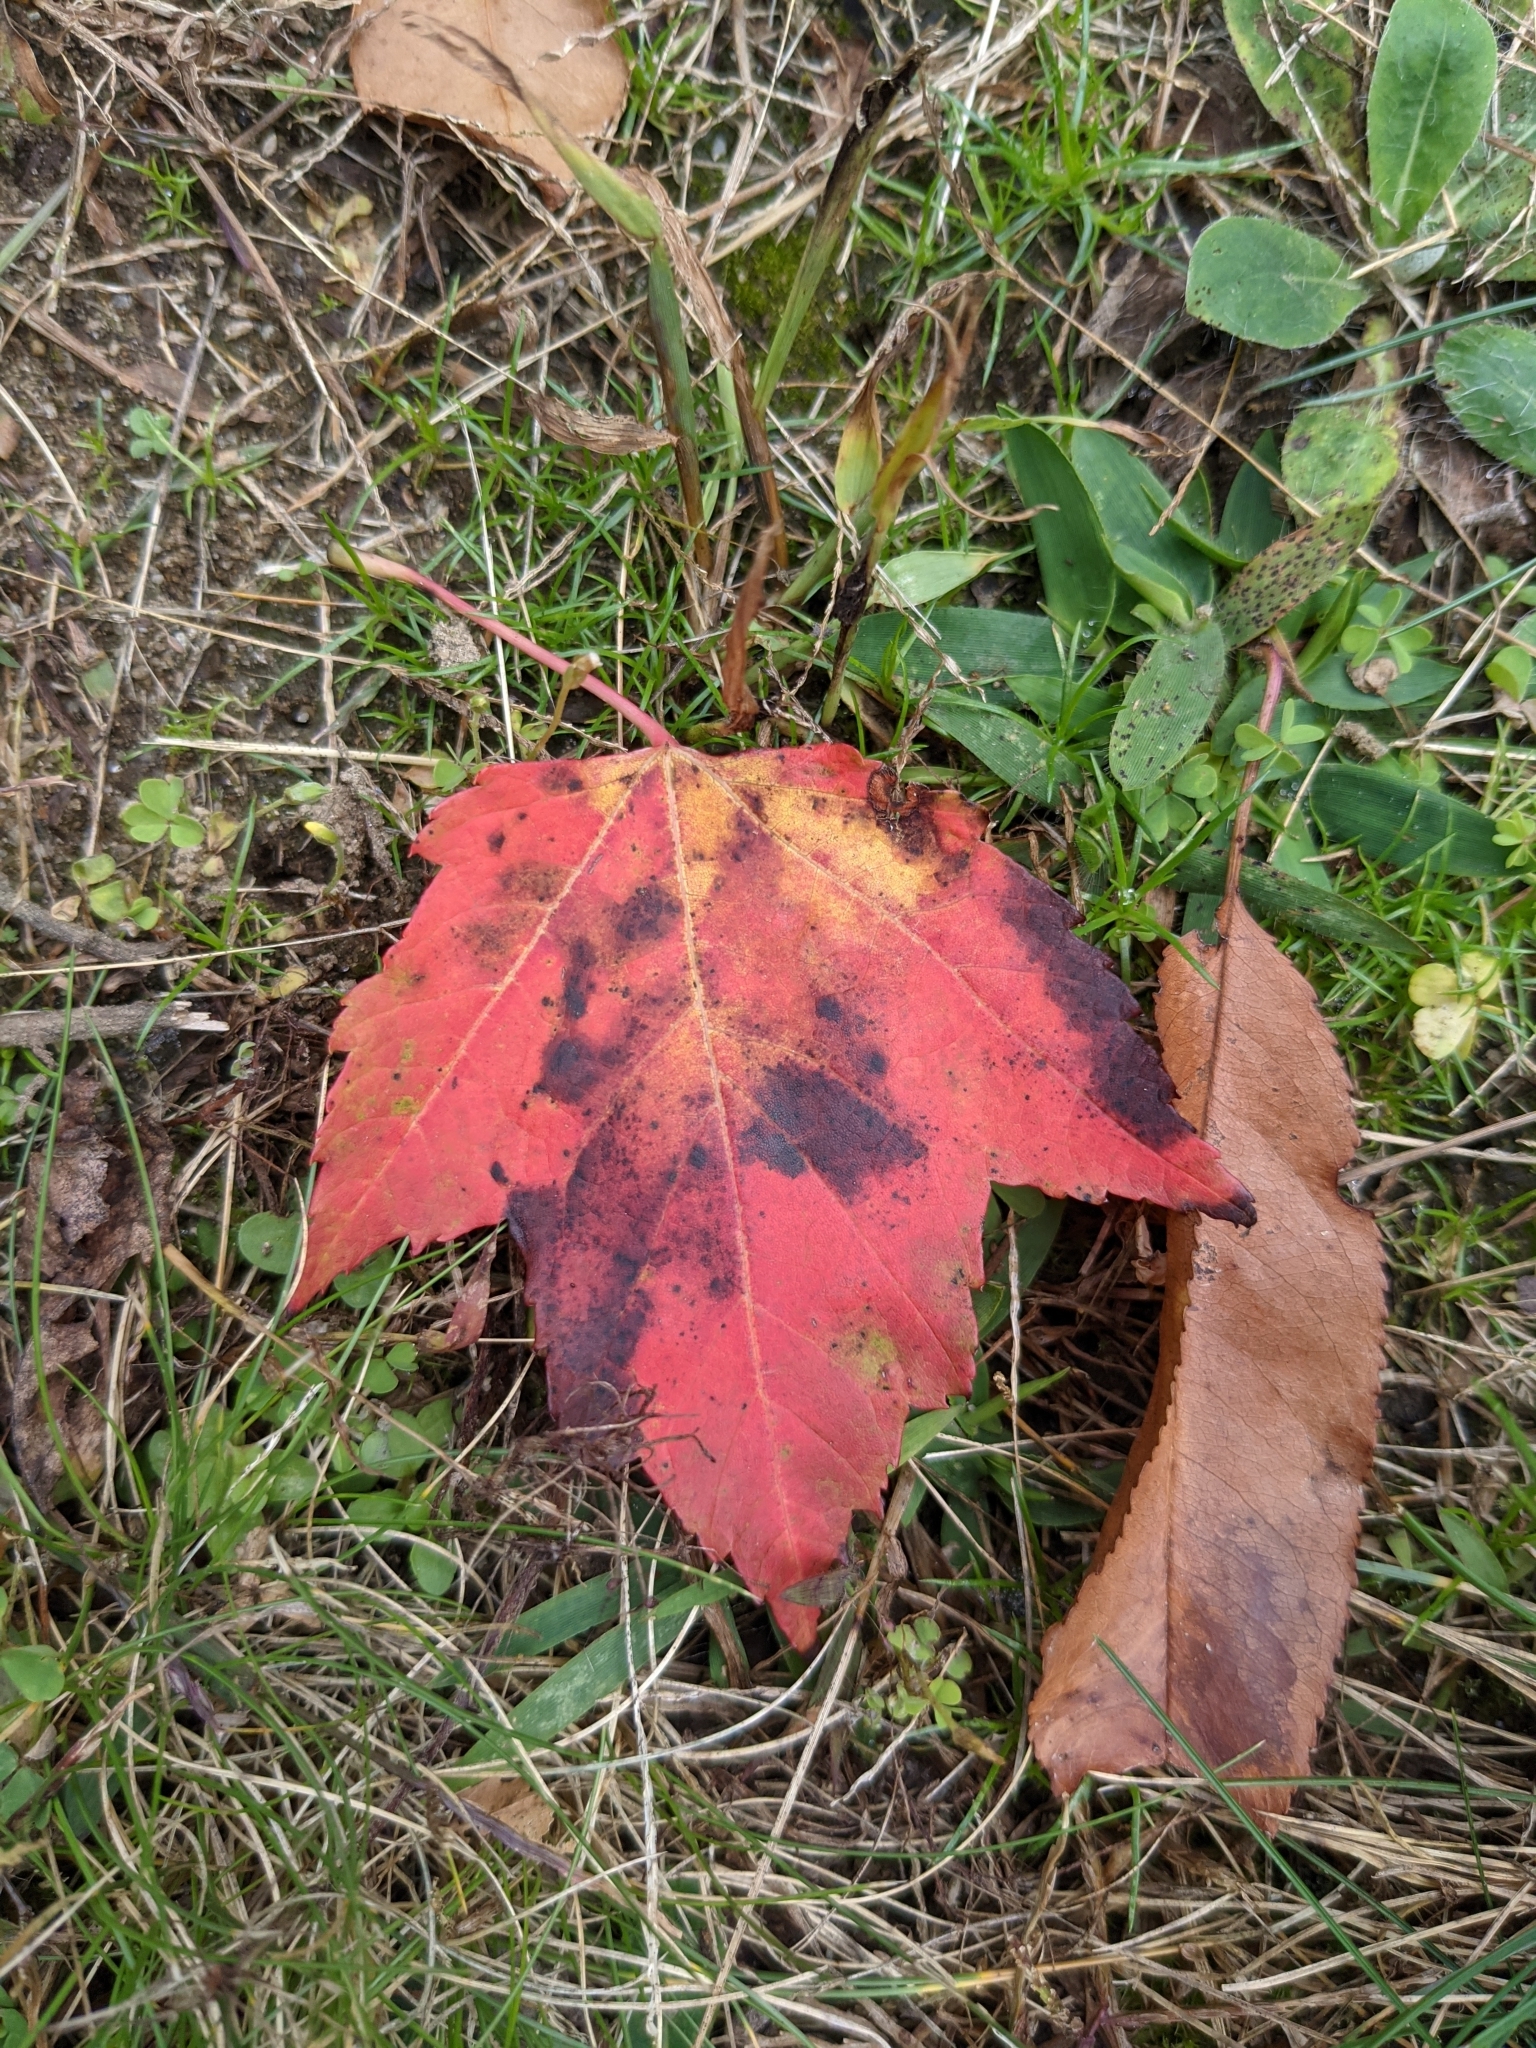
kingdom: Plantae
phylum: Tracheophyta
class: Magnoliopsida
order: Sapindales
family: Sapindaceae
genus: Acer
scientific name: Acer rubrum
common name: Red maple
